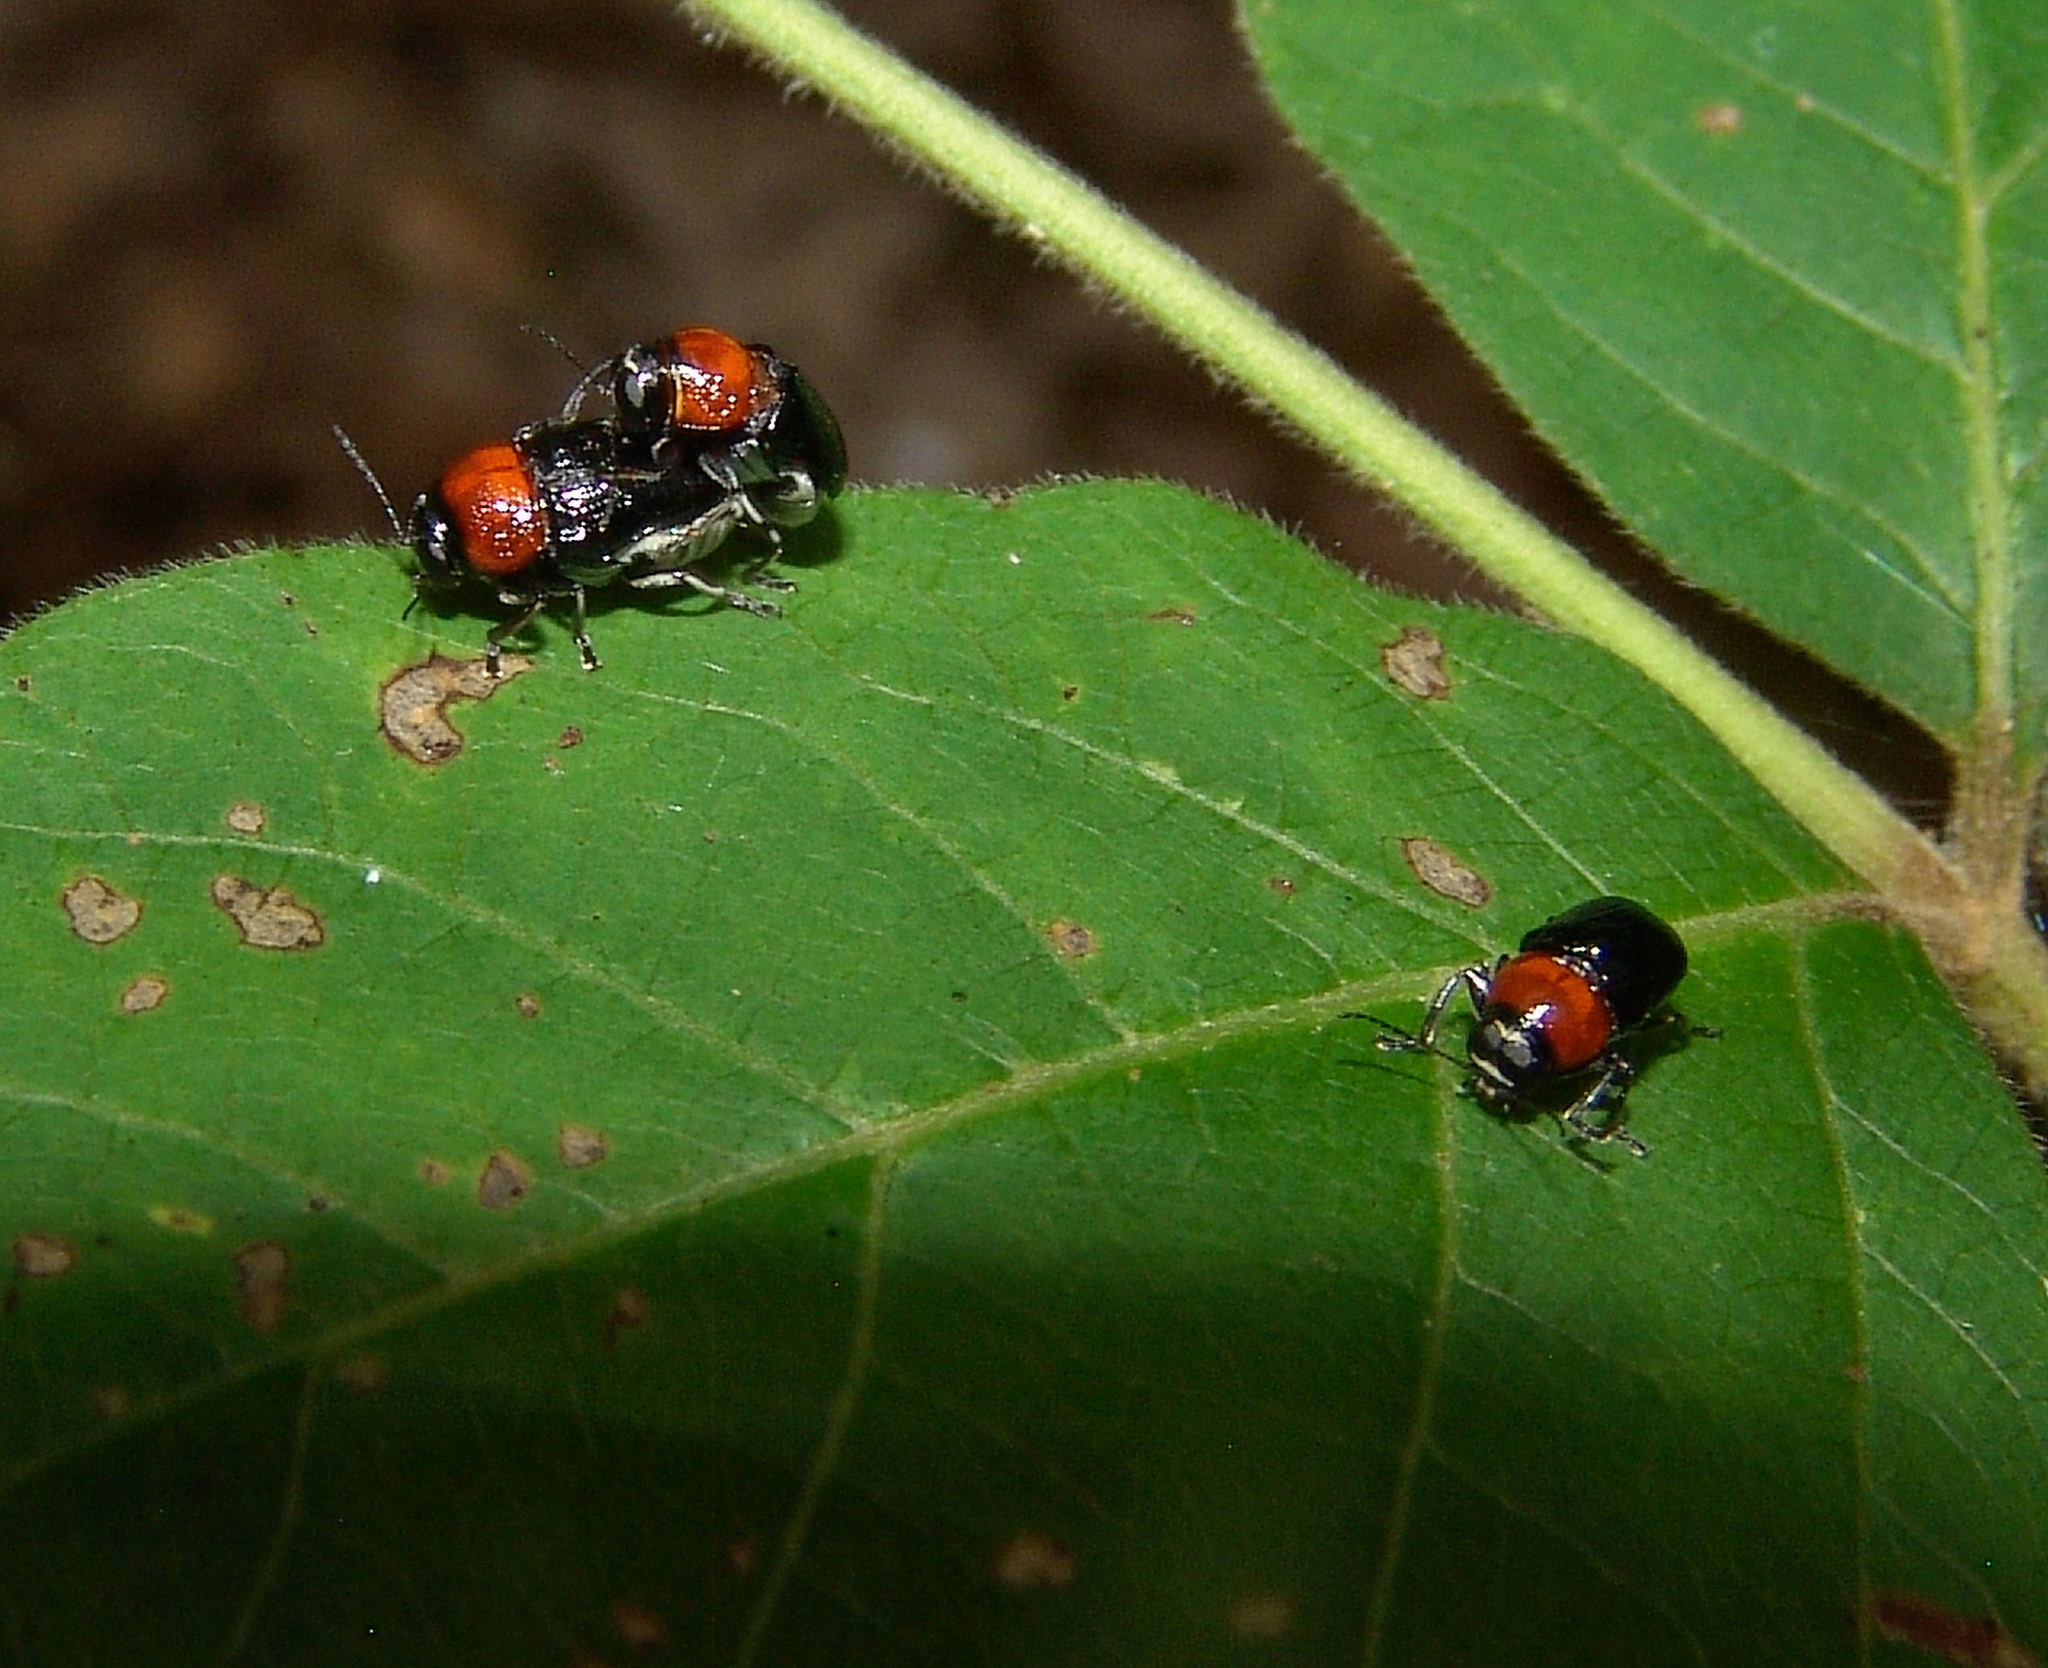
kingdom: Animalia
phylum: Arthropoda
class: Insecta
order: Coleoptera
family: Chrysomelidae
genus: Griburius
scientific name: Griburius montezuma
